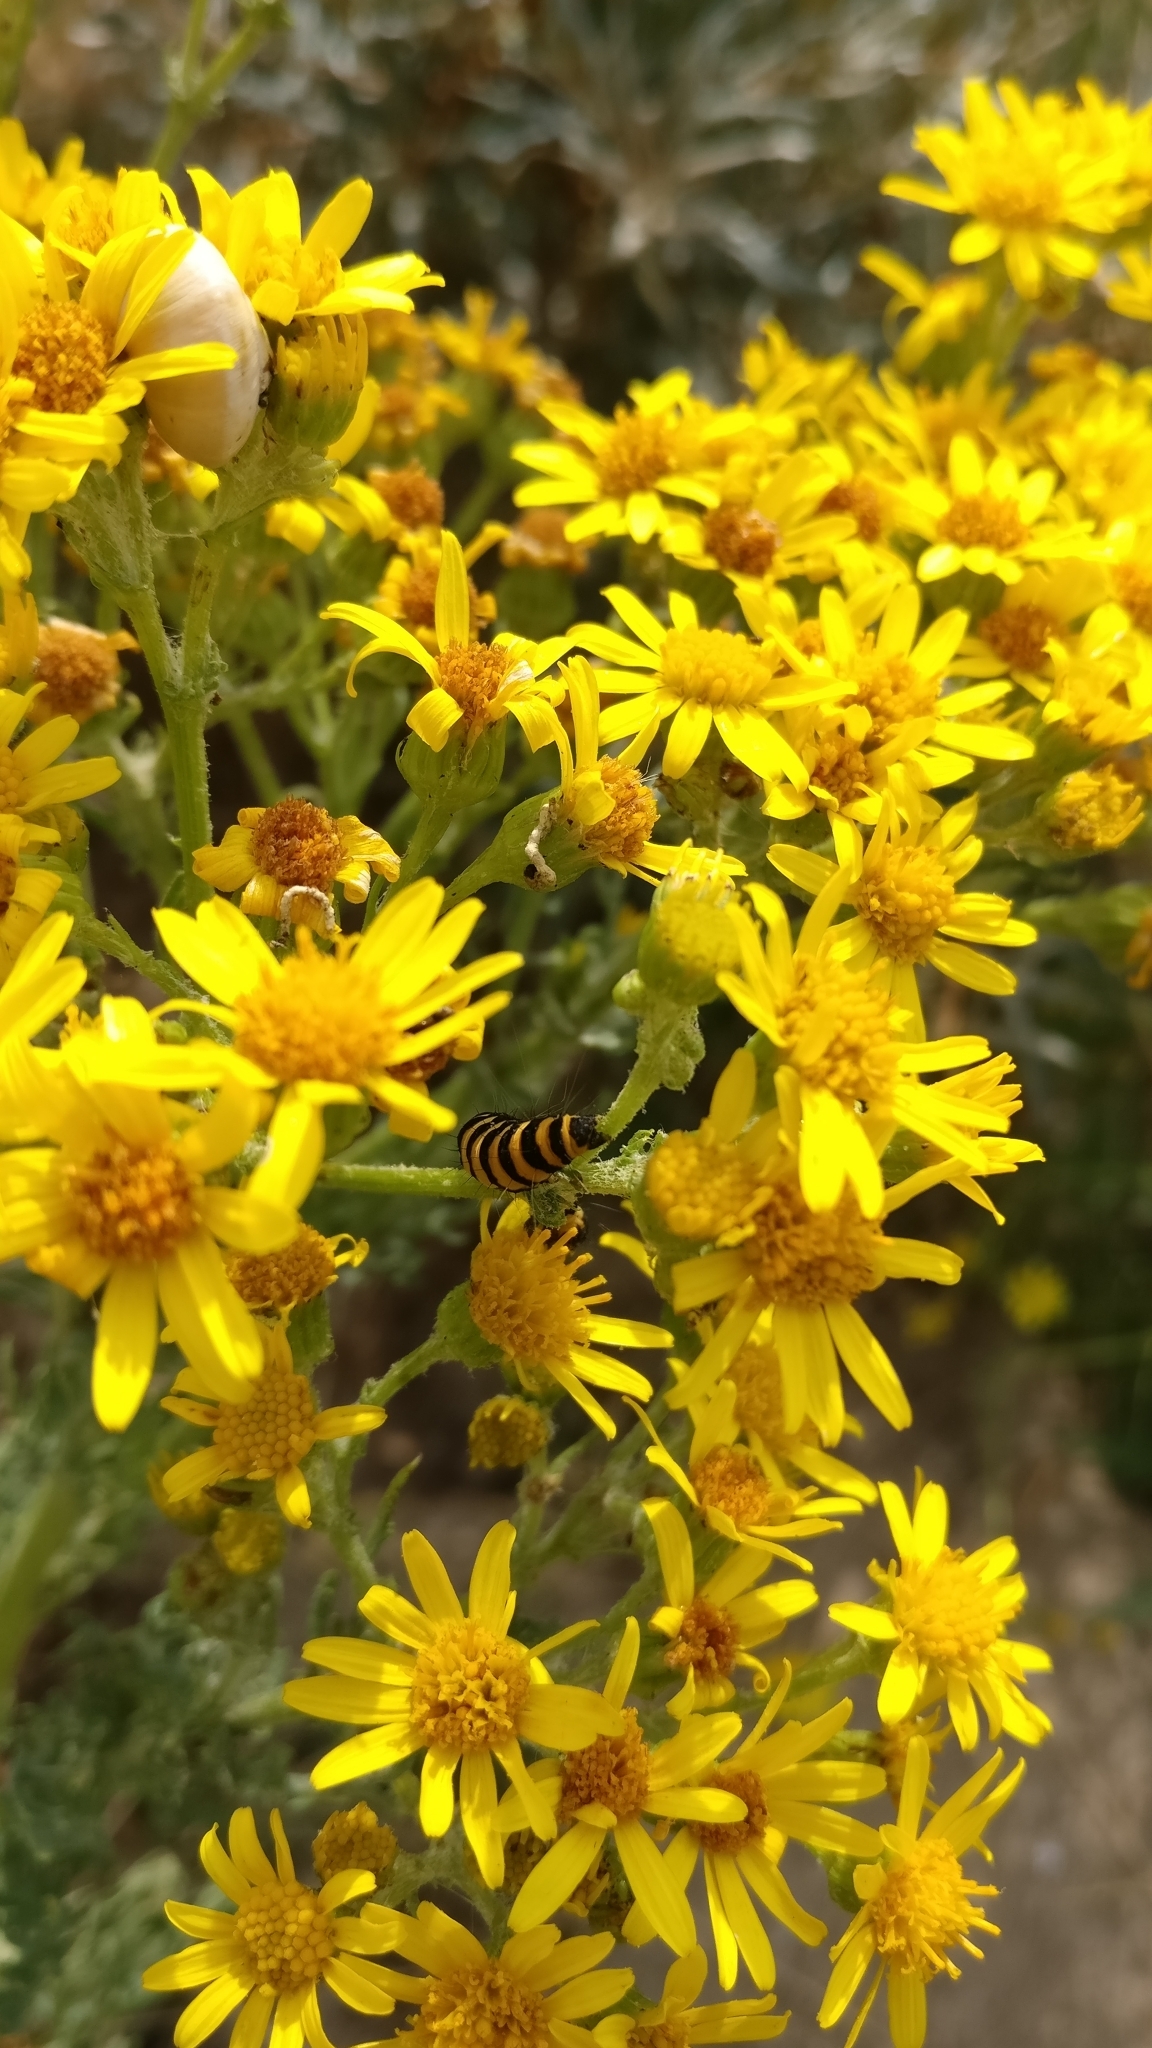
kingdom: Animalia
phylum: Arthropoda
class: Insecta
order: Lepidoptera
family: Erebidae
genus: Tyria
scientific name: Tyria jacobaeae
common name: Cinnabar
